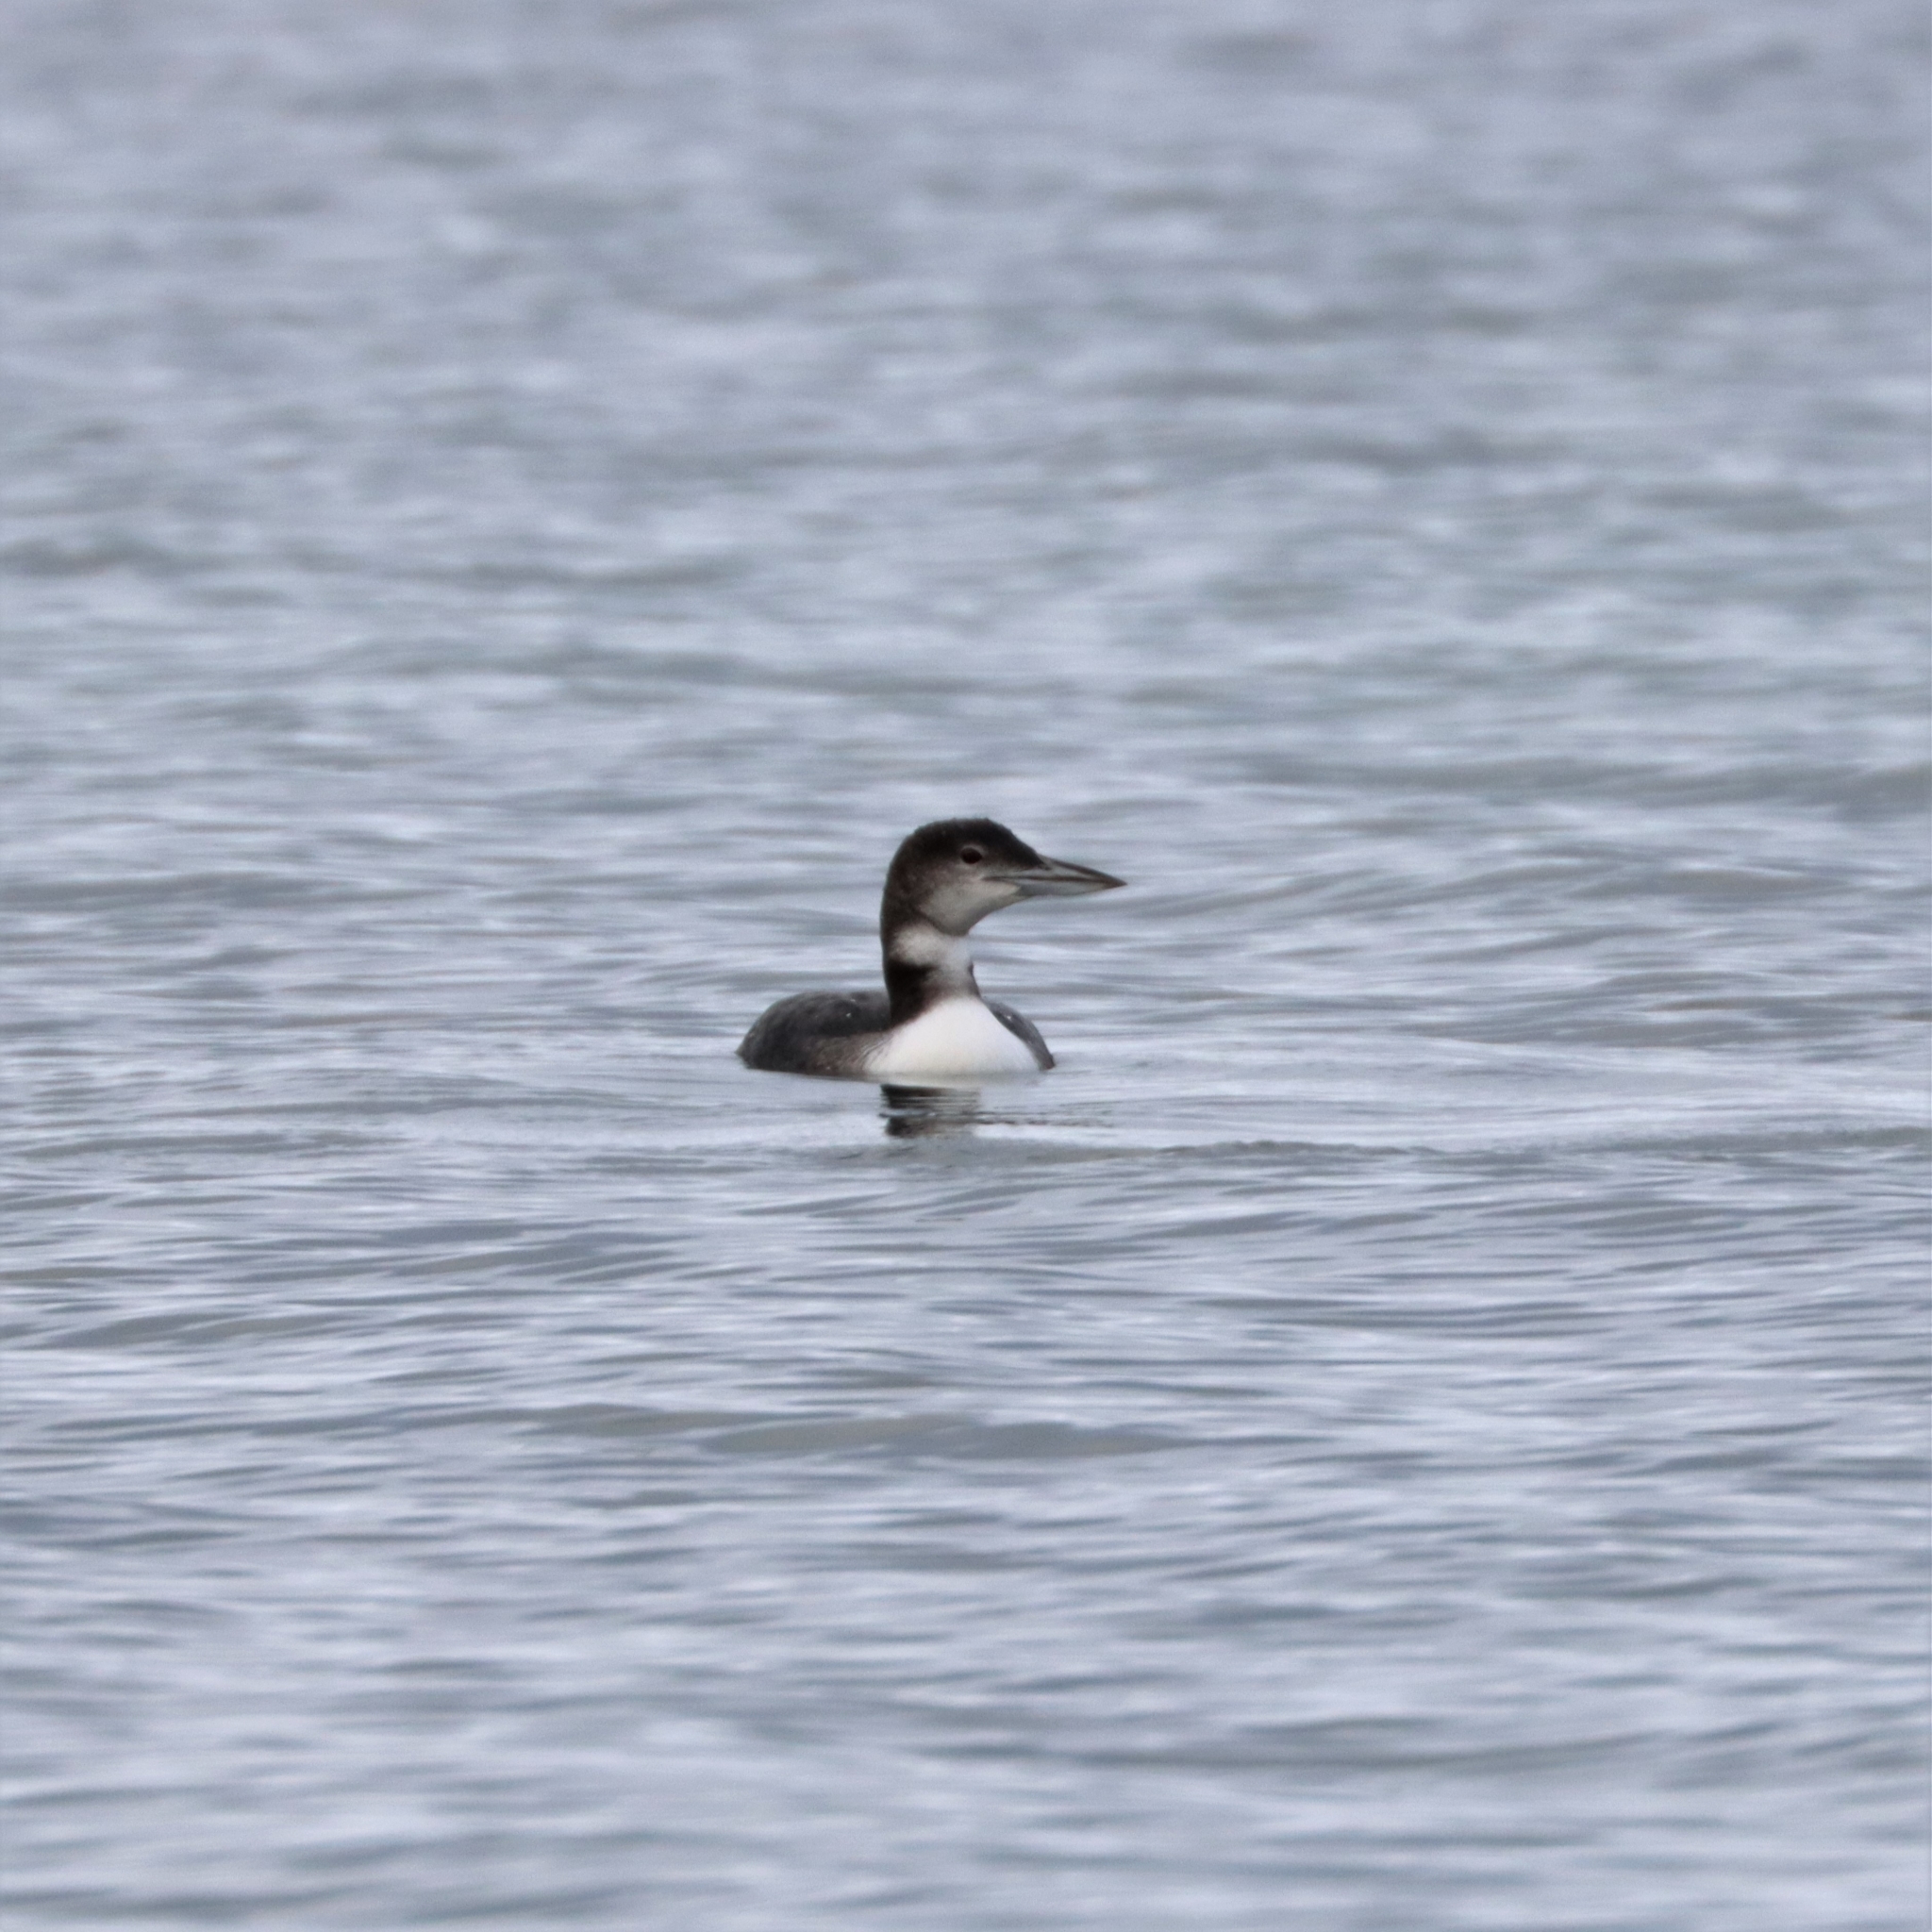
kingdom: Animalia
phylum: Chordata
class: Aves
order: Gaviiformes
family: Gaviidae
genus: Gavia
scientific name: Gavia immer
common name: Common loon
